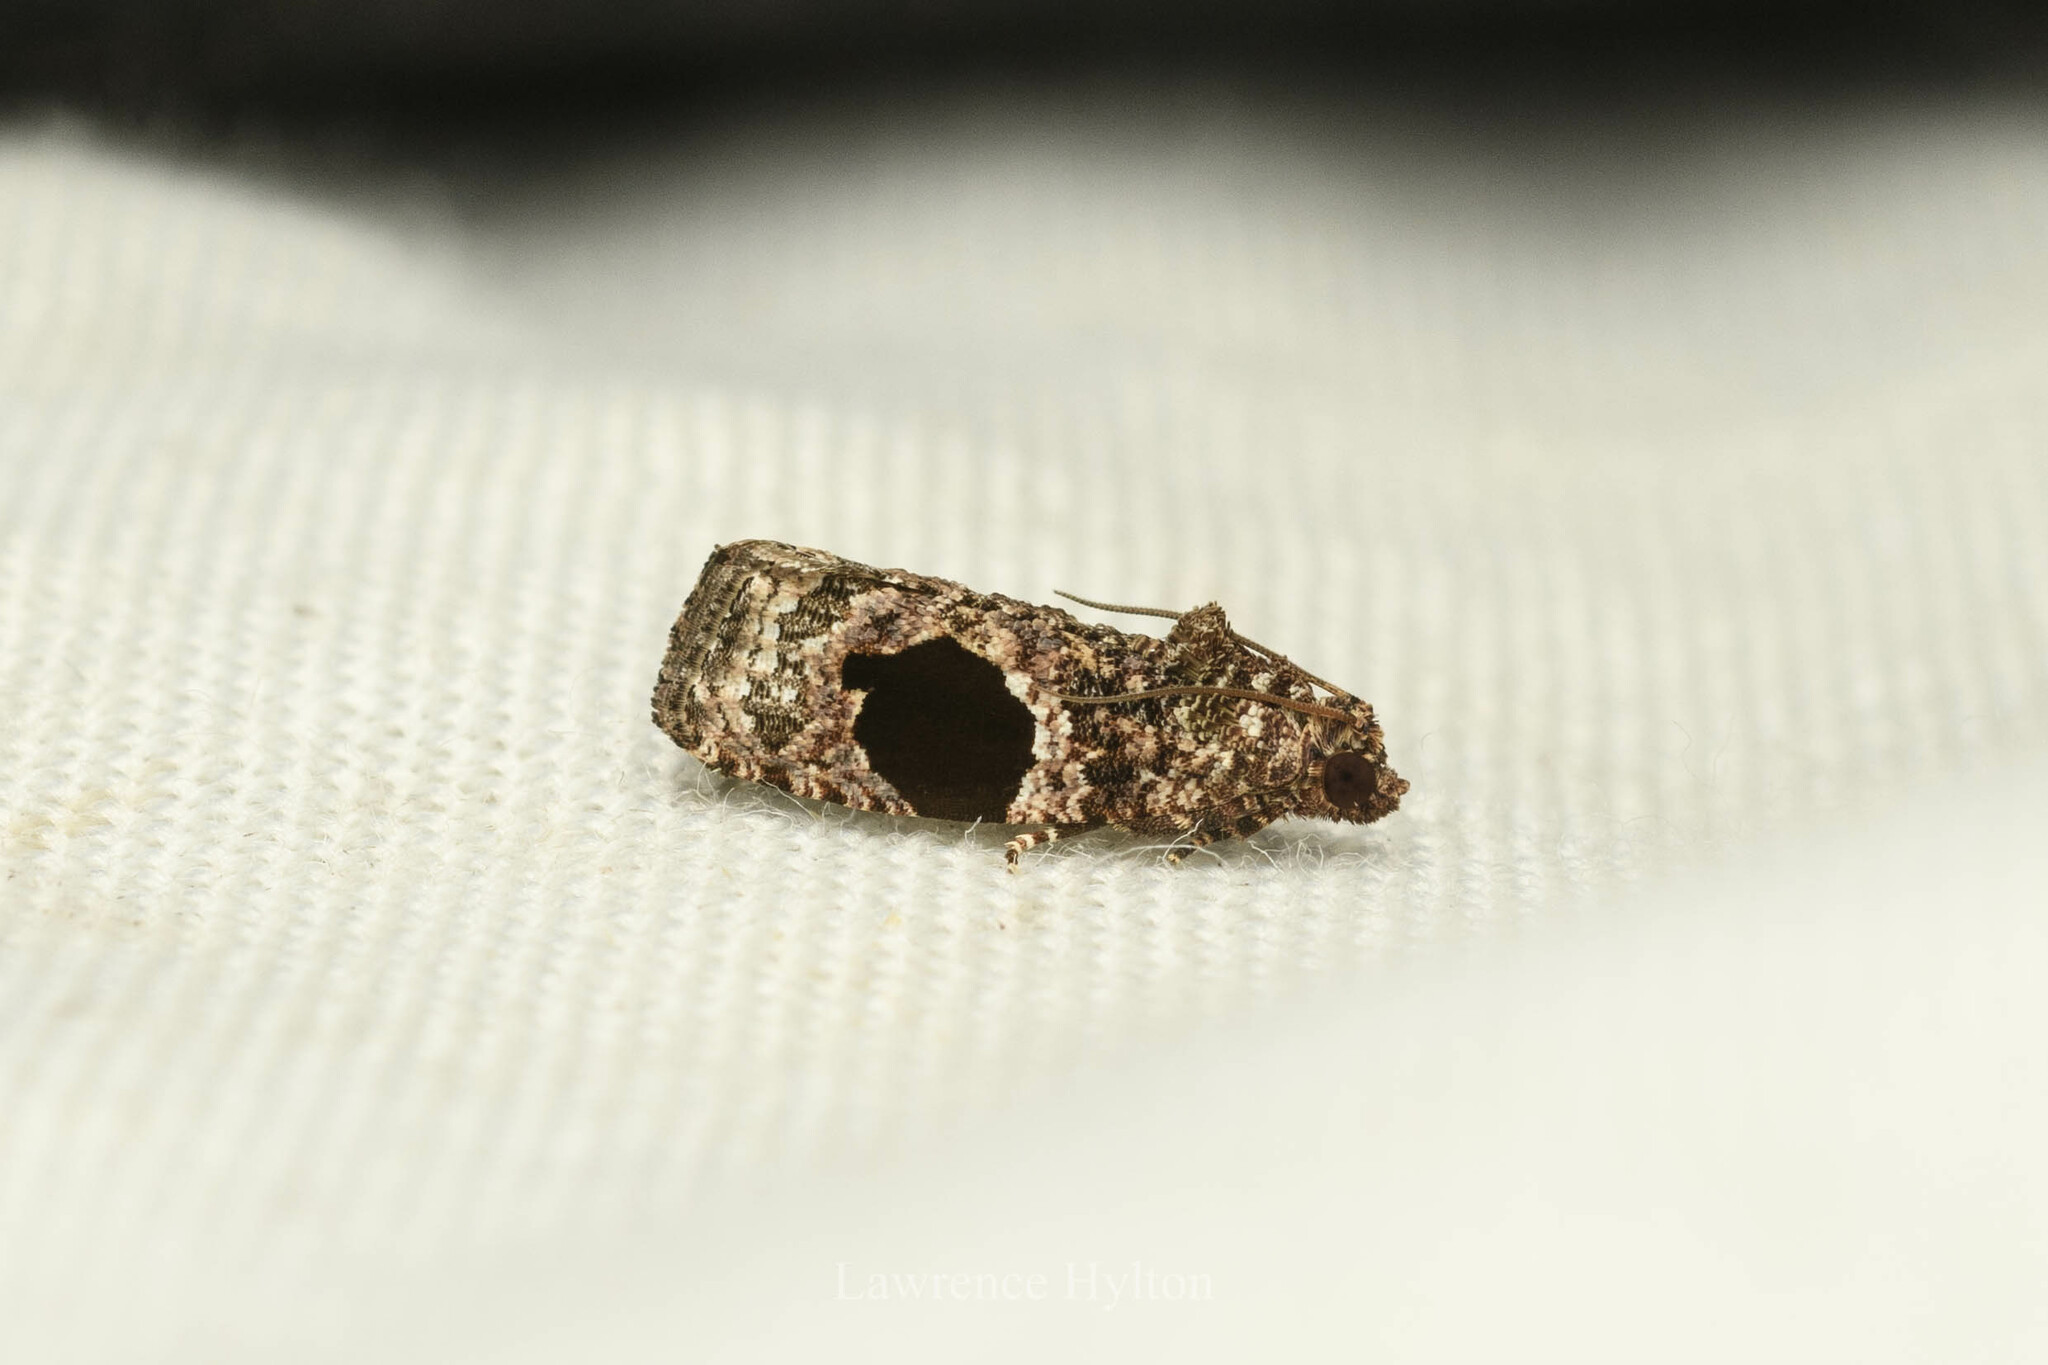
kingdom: Animalia
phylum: Arthropoda
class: Insecta
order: Lepidoptera
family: Tortricidae
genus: Ophiorrhabda
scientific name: Ophiorrhabda mormopa
